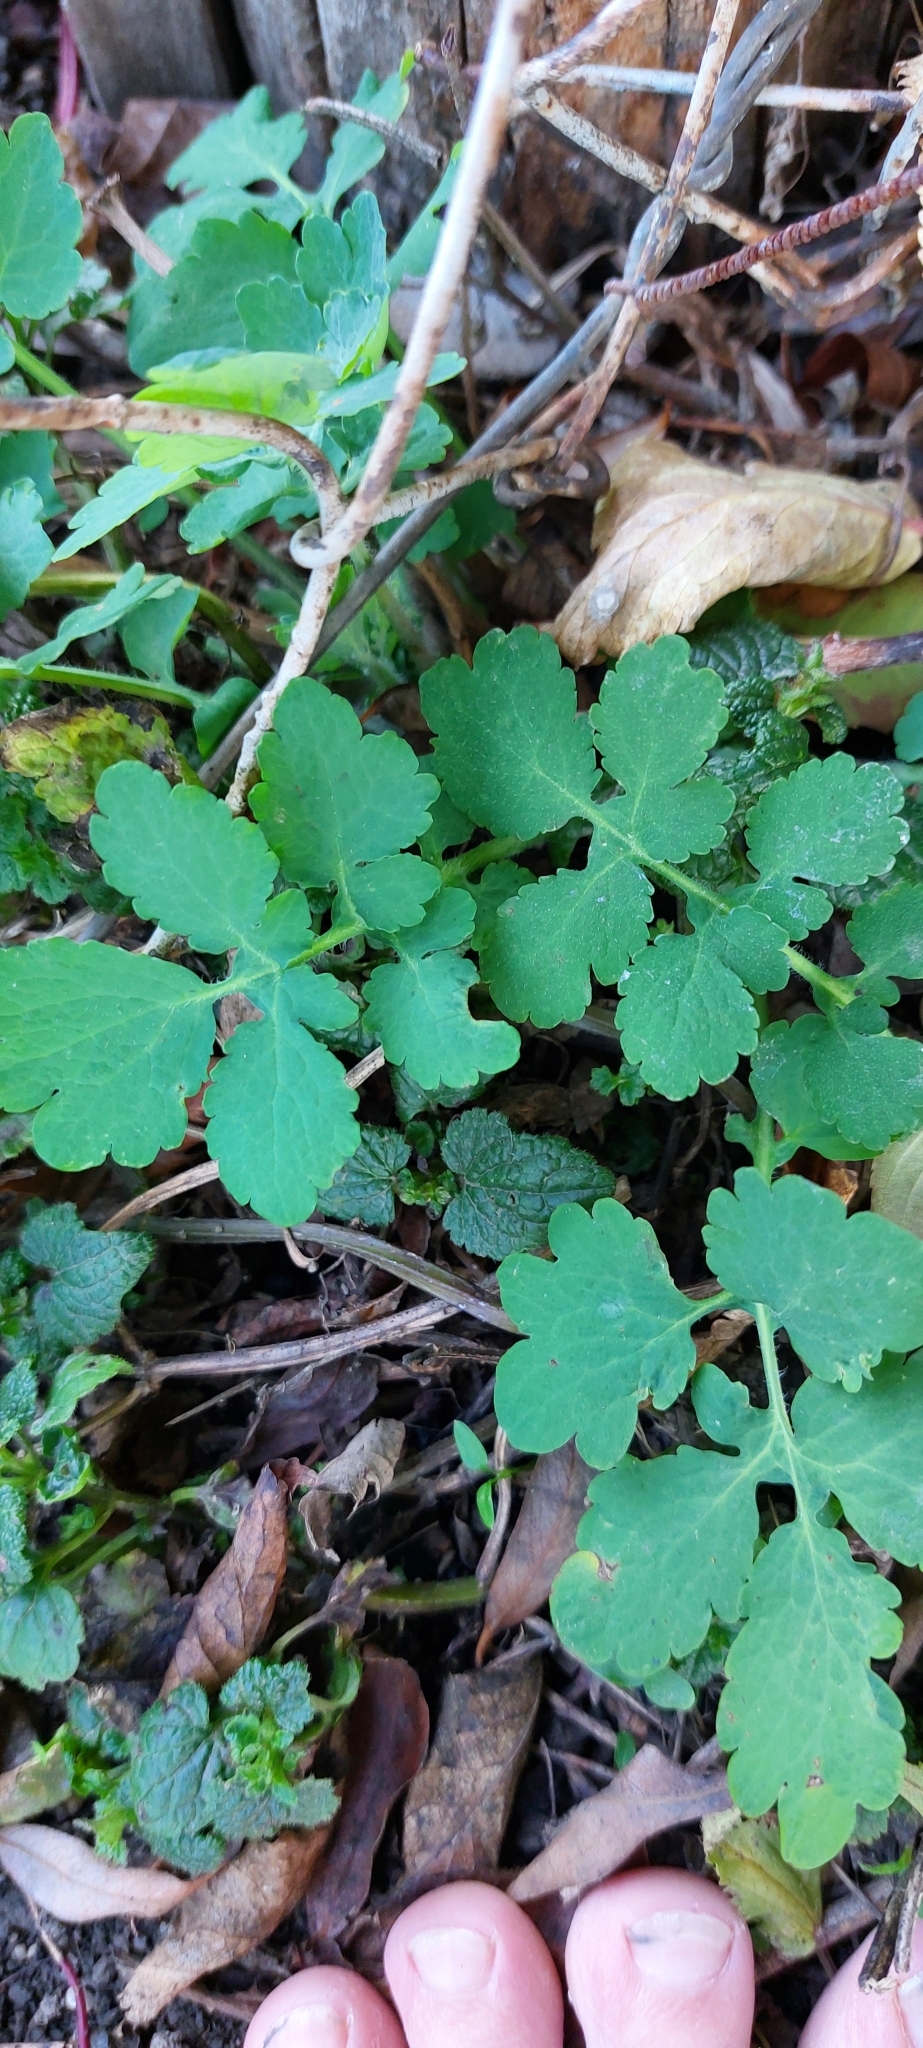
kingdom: Plantae
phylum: Tracheophyta
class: Magnoliopsida
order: Ranunculales
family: Papaveraceae
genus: Chelidonium
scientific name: Chelidonium majus
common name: Greater celandine
